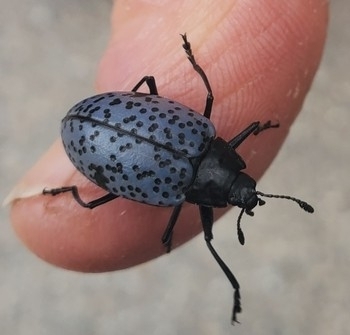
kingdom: Animalia
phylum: Arthropoda
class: Insecta
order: Coleoptera
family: Erotylidae
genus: Gibbifer
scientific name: Gibbifer californicus
